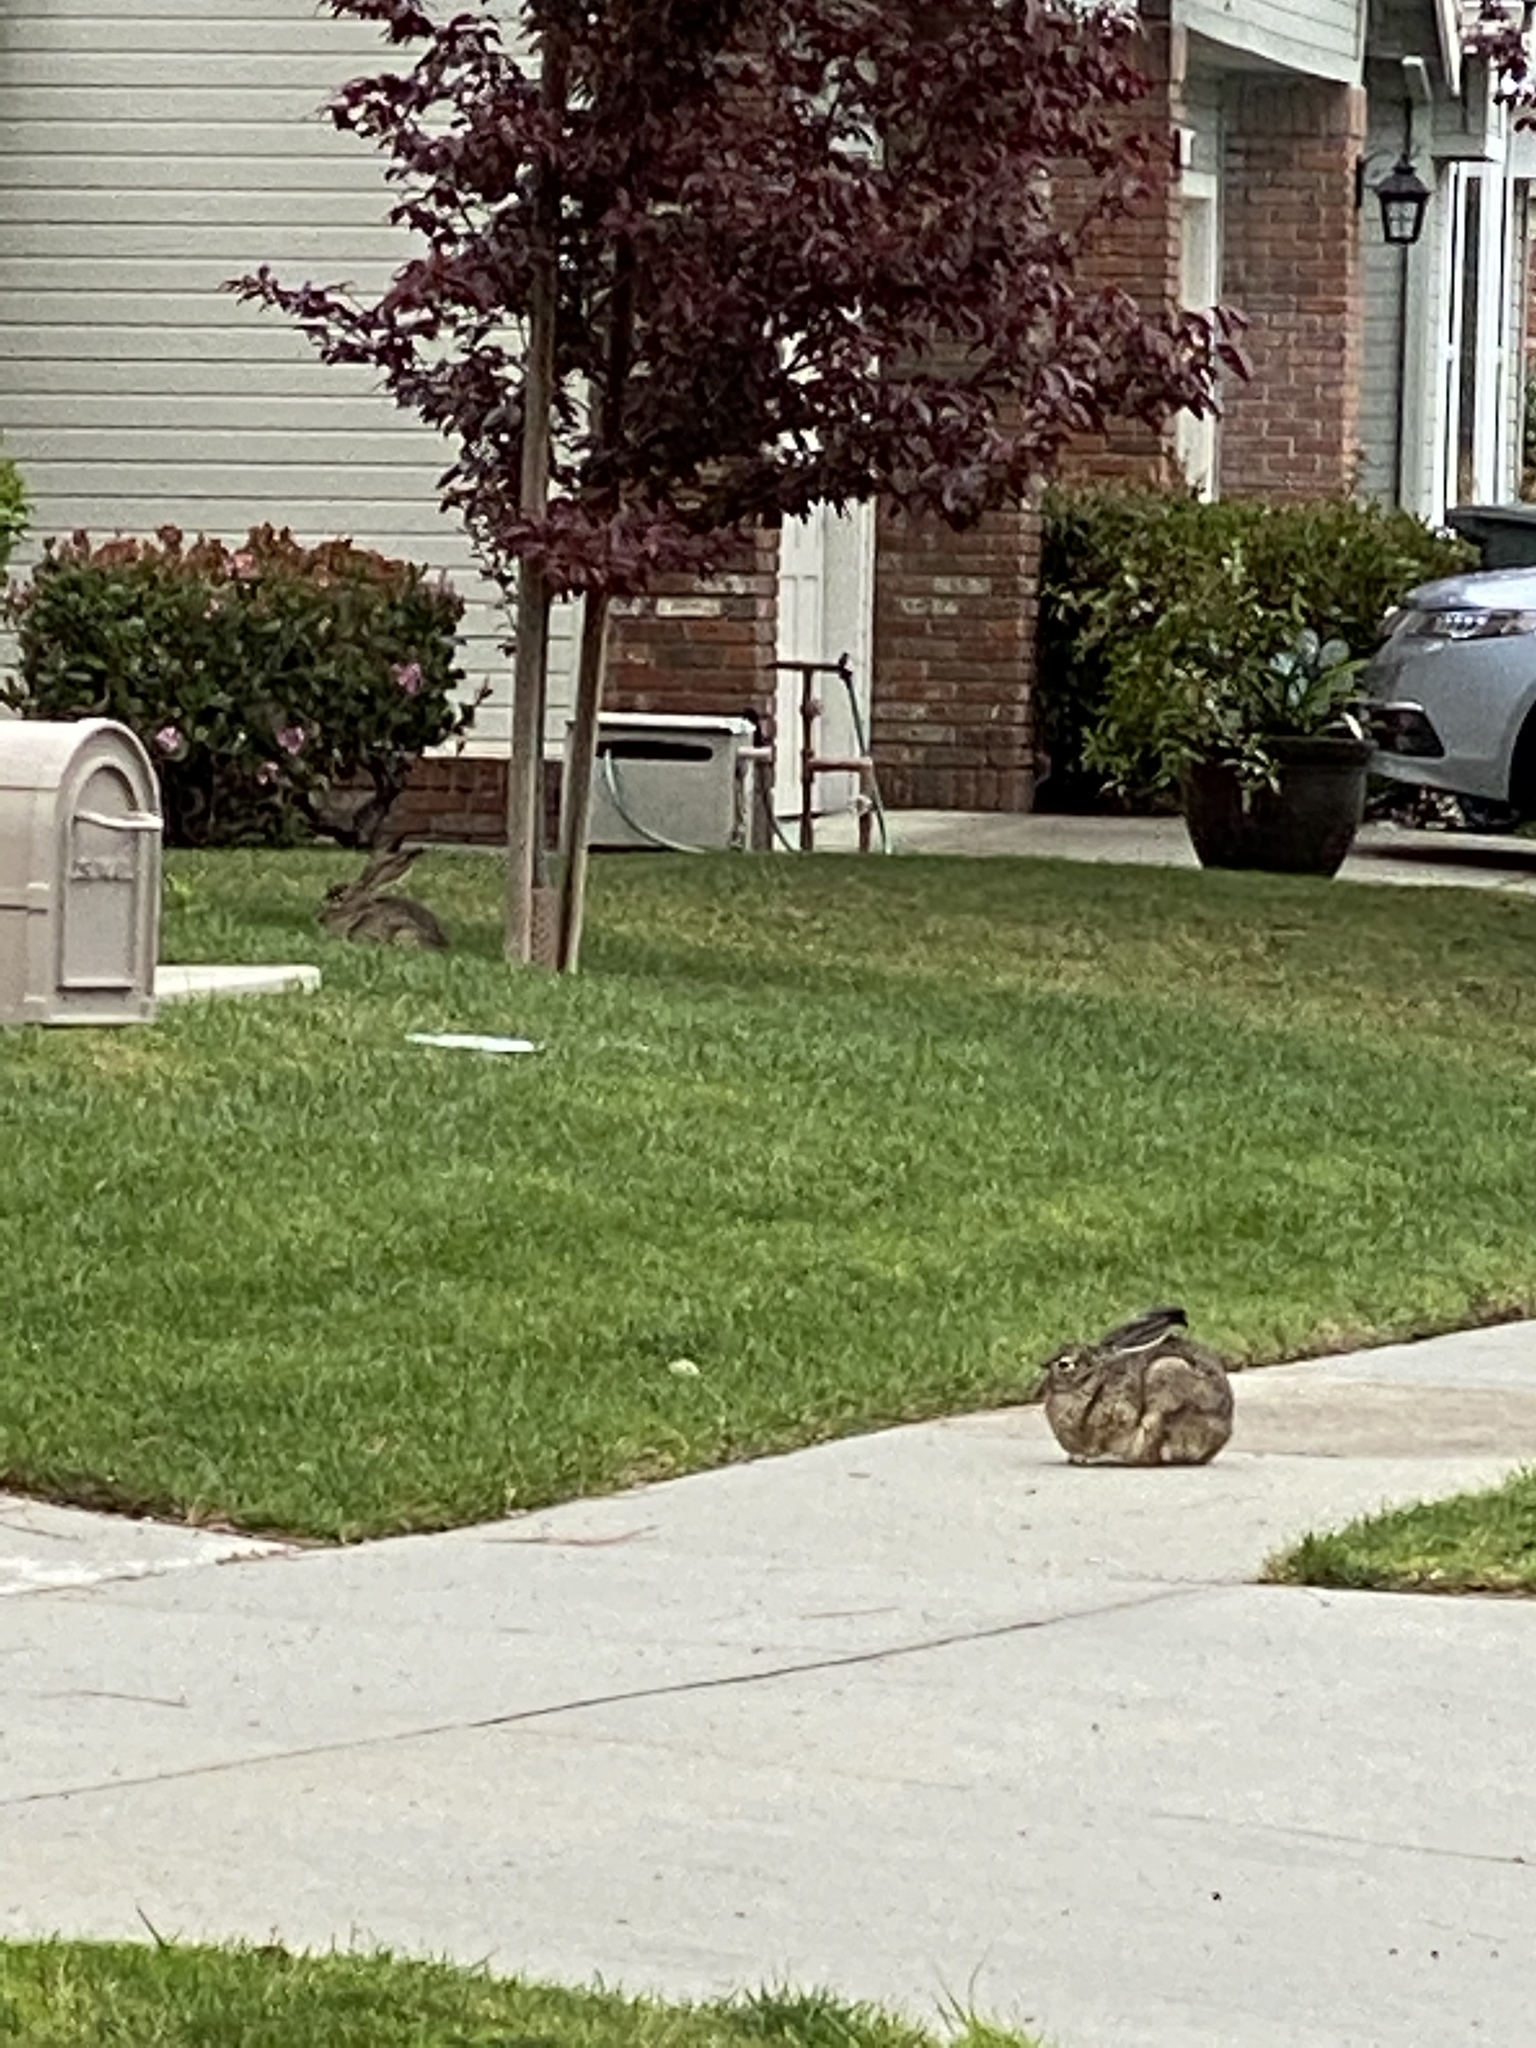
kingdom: Animalia
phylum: Chordata
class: Mammalia
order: Lagomorpha
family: Leporidae
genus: Lepus
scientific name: Lepus californicus
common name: Black-tailed jackrabbit
